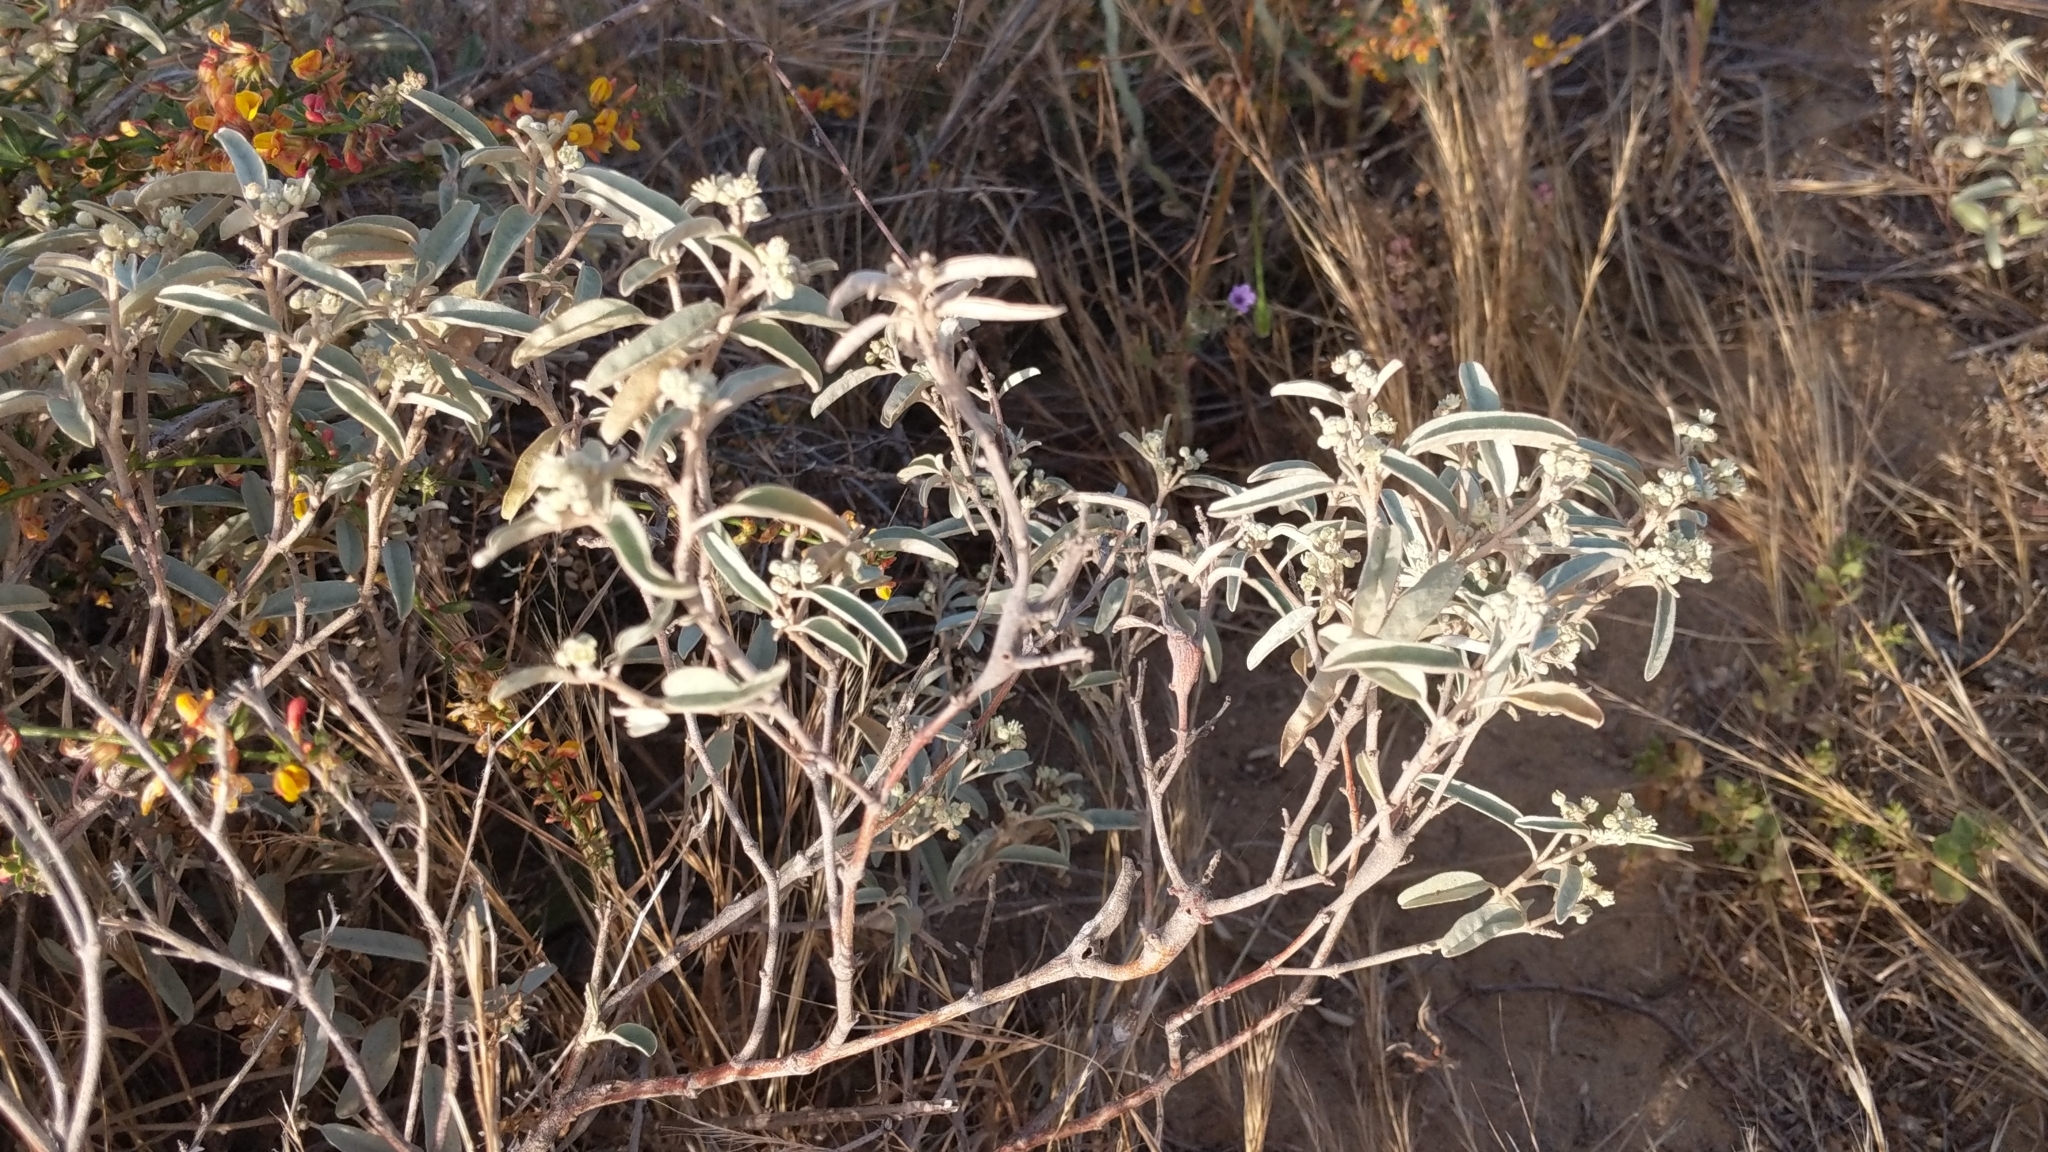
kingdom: Plantae
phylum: Tracheophyta
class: Magnoliopsida
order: Malpighiales
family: Euphorbiaceae
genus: Croton
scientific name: Croton californicus
